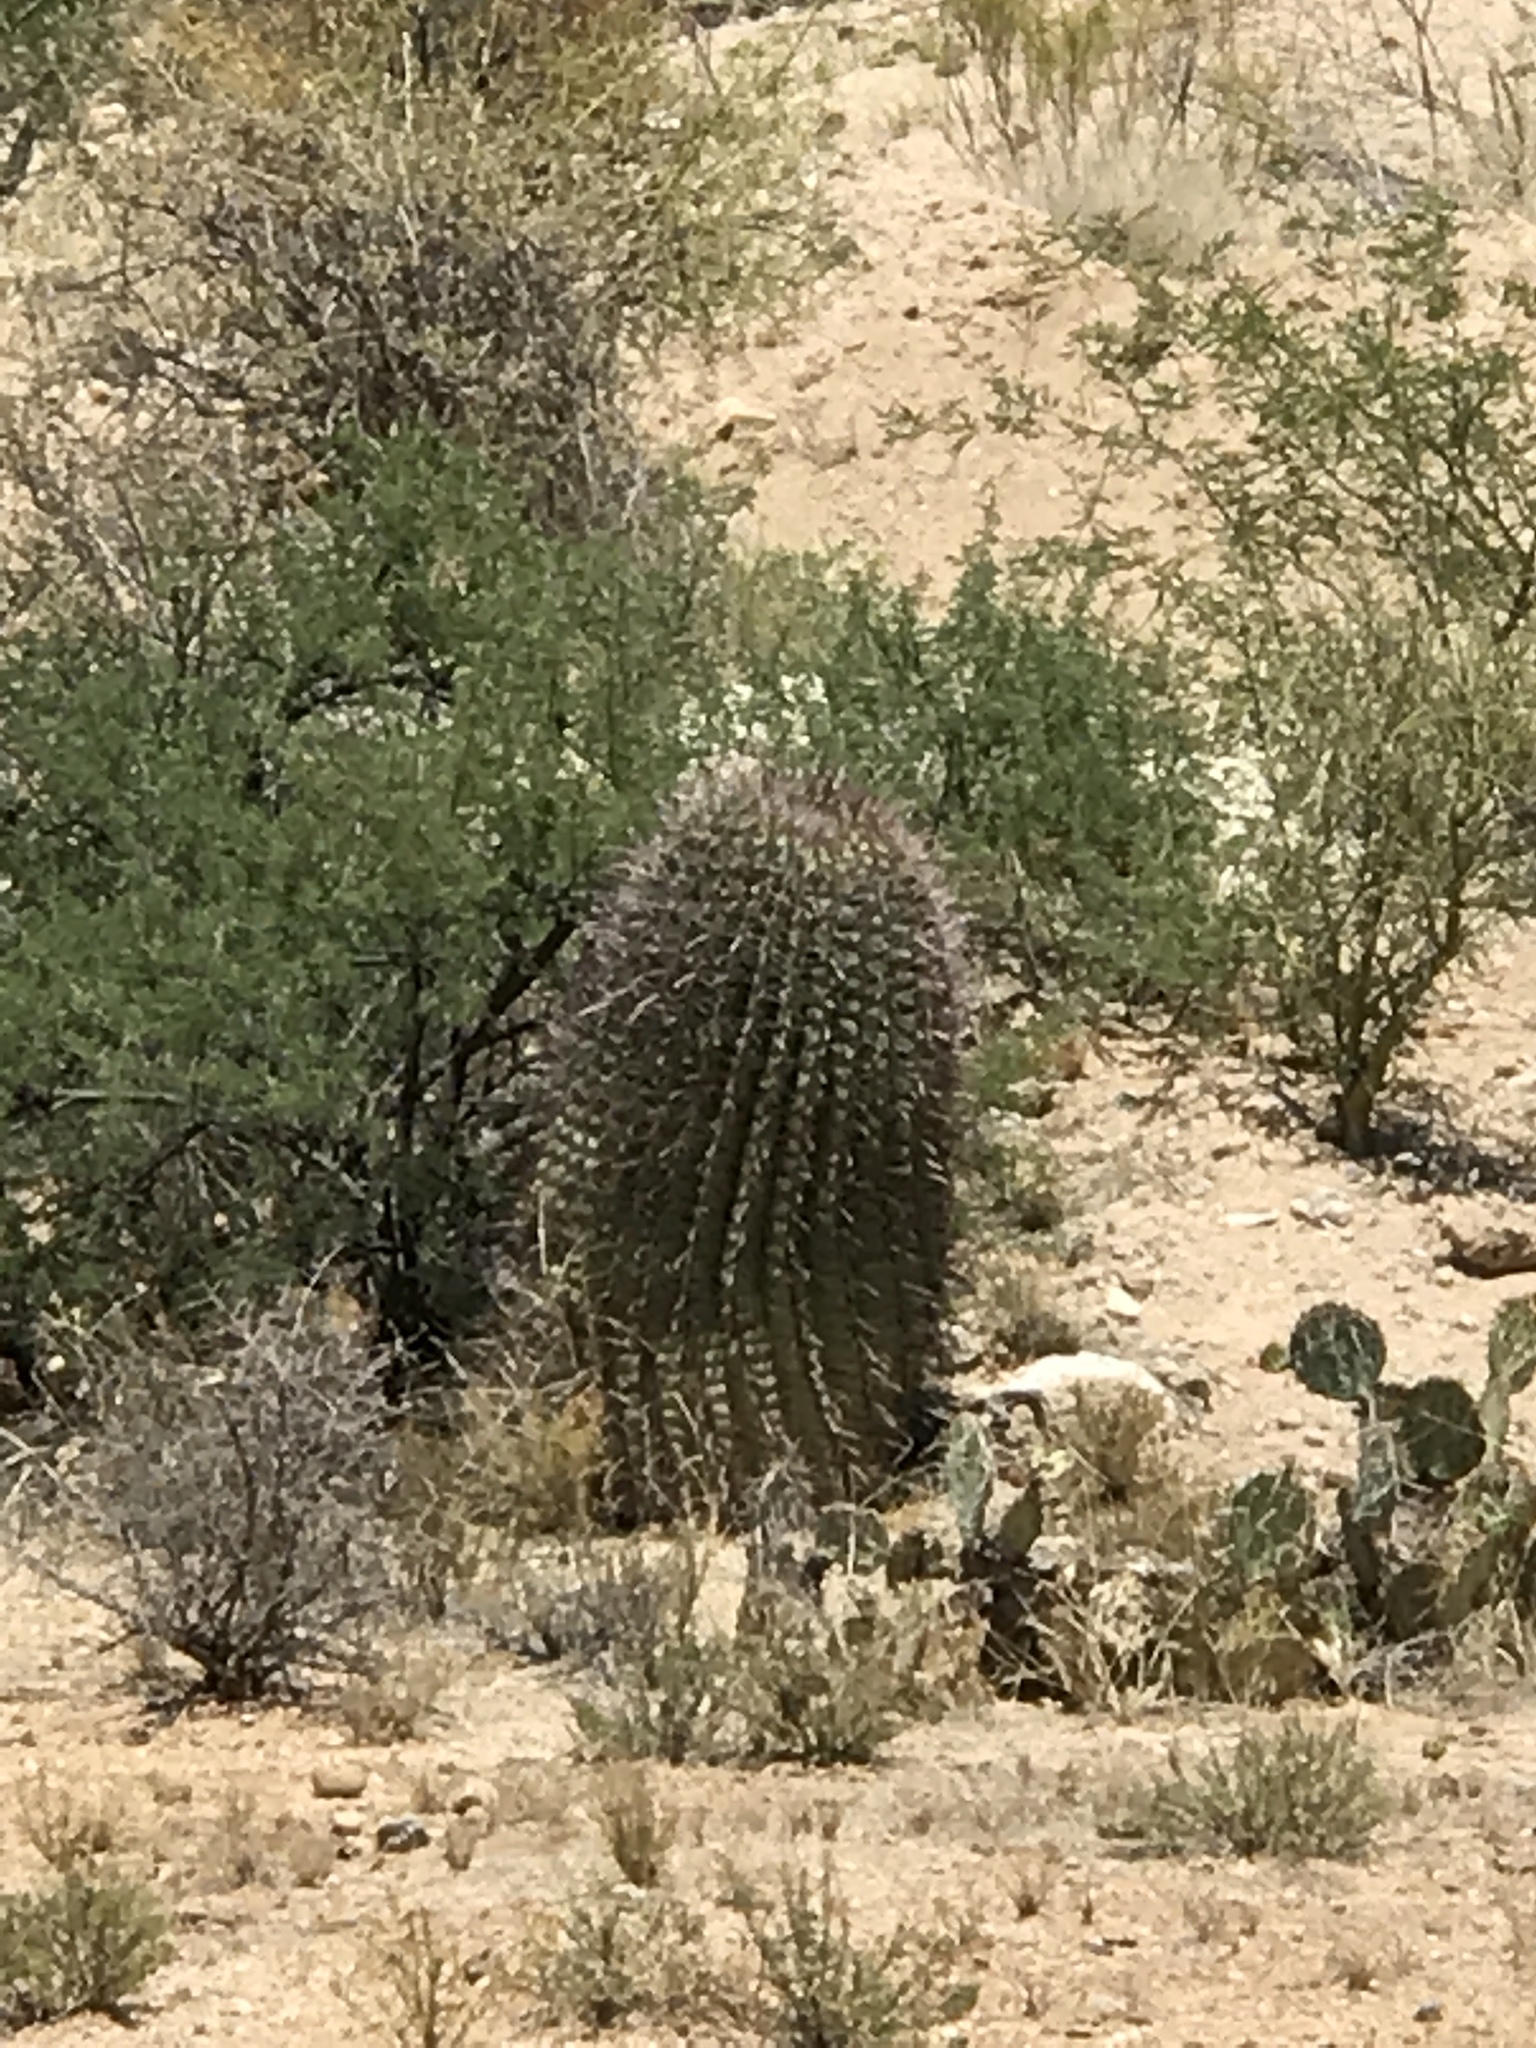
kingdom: Plantae
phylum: Tracheophyta
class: Magnoliopsida
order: Caryophyllales
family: Cactaceae
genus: Ferocactus
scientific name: Ferocactus wislizeni
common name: Candy barrel cactus
